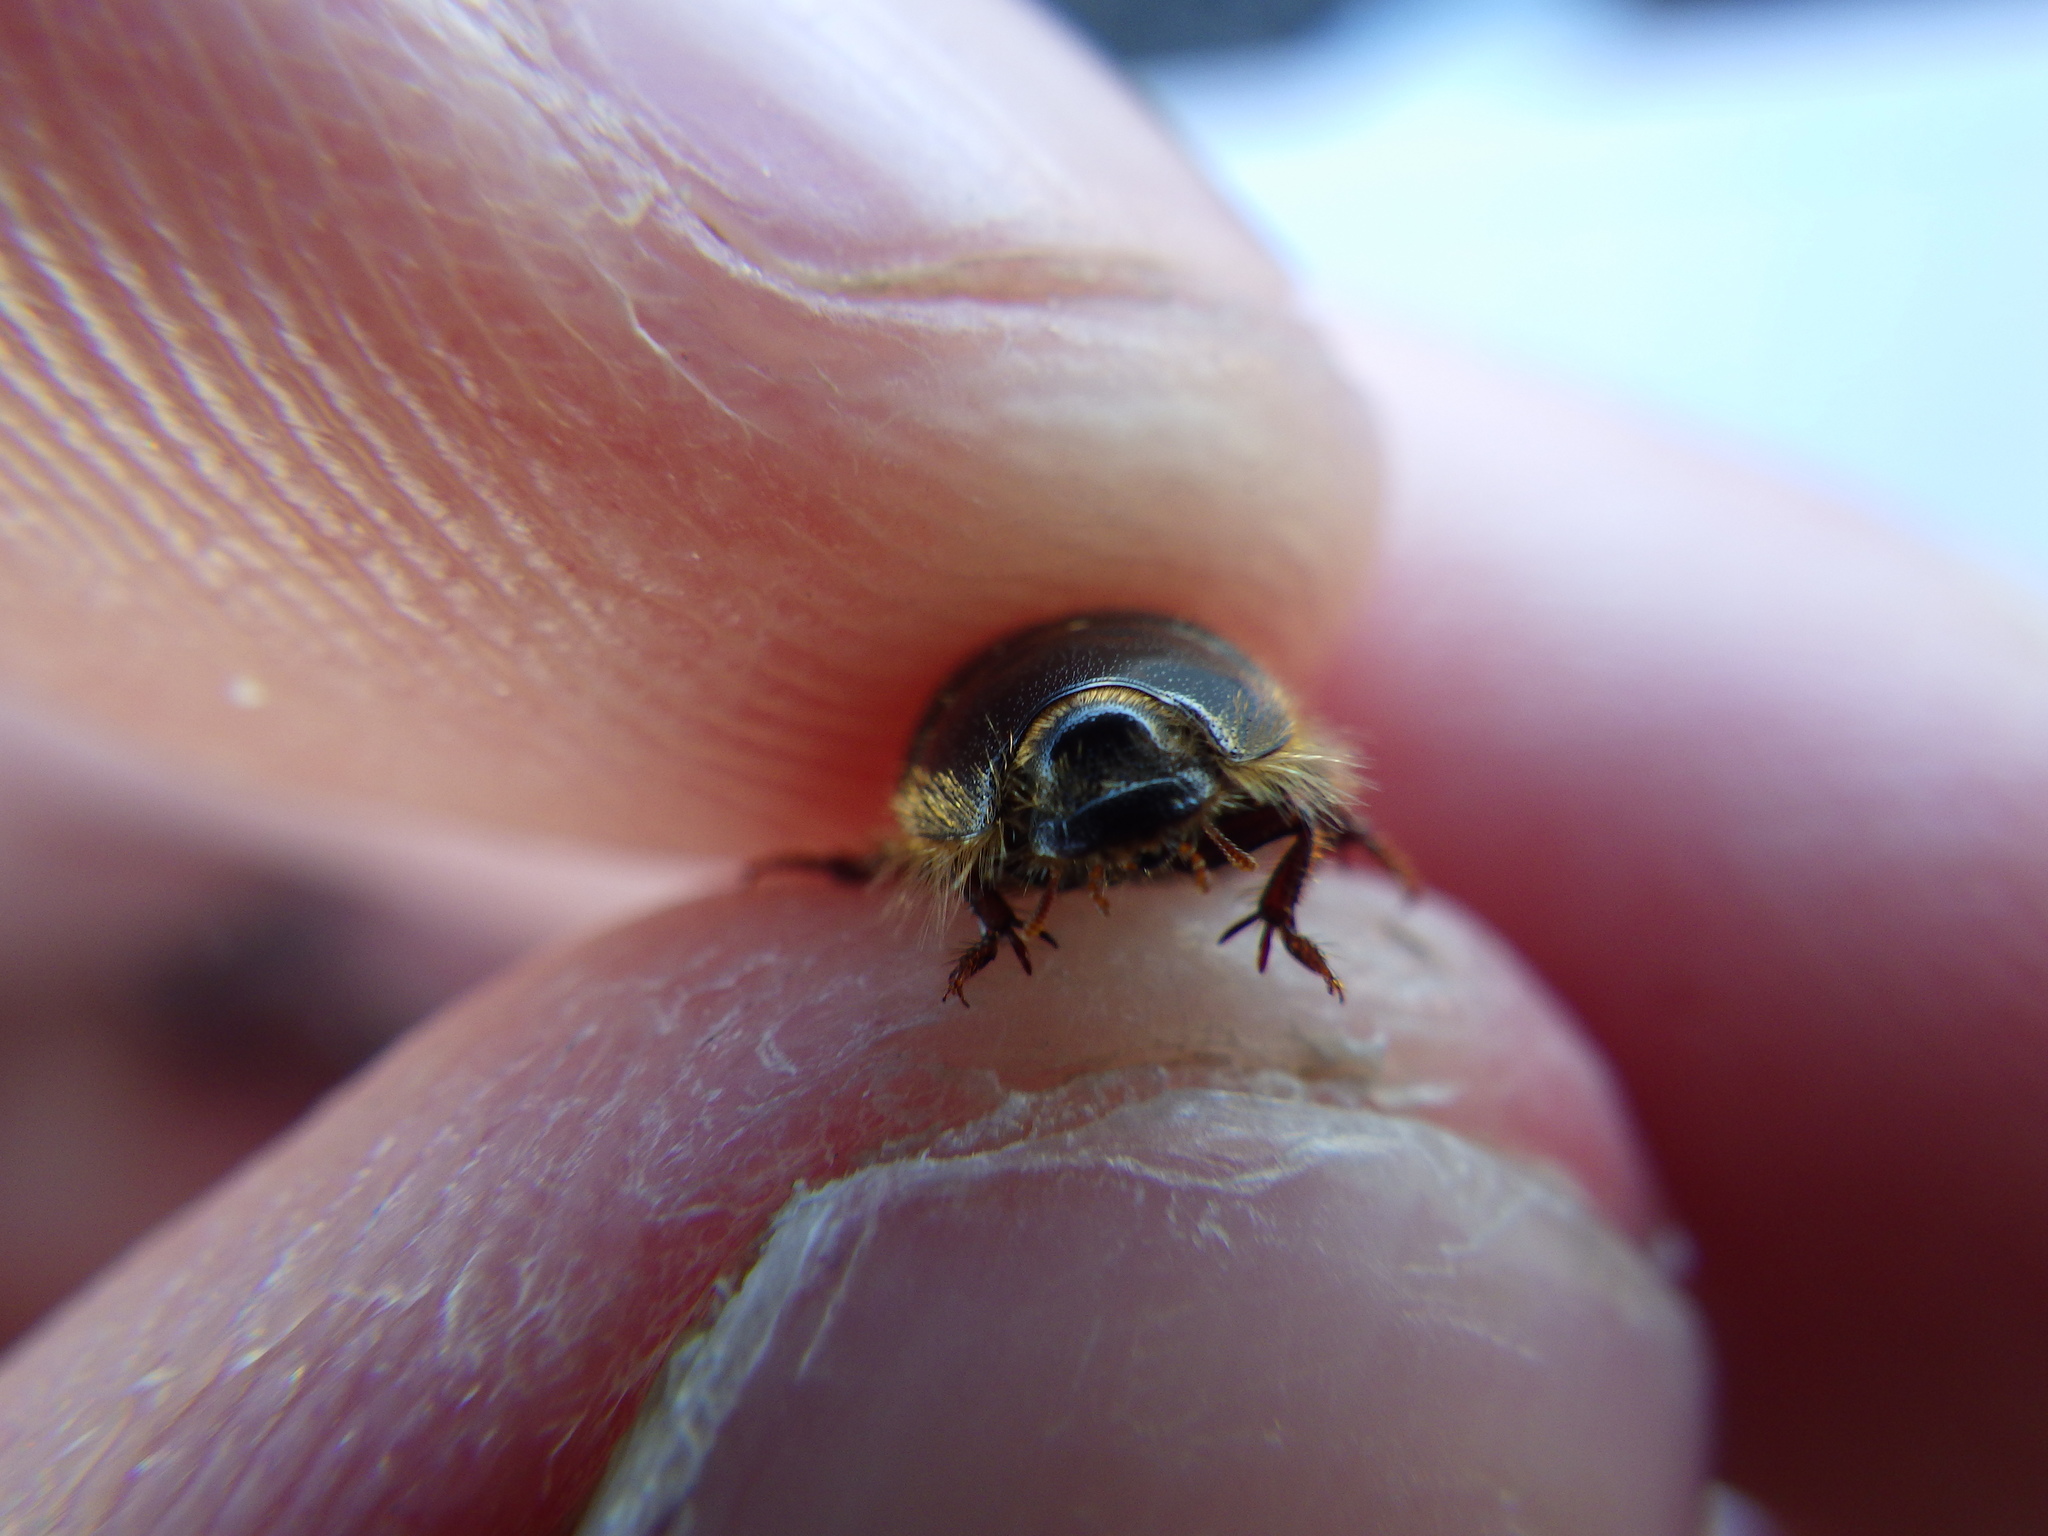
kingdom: Animalia
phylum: Arthropoda
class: Insecta
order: Coleoptera
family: Tenebrionidae
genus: Coelus
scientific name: Coelus ciliatus
